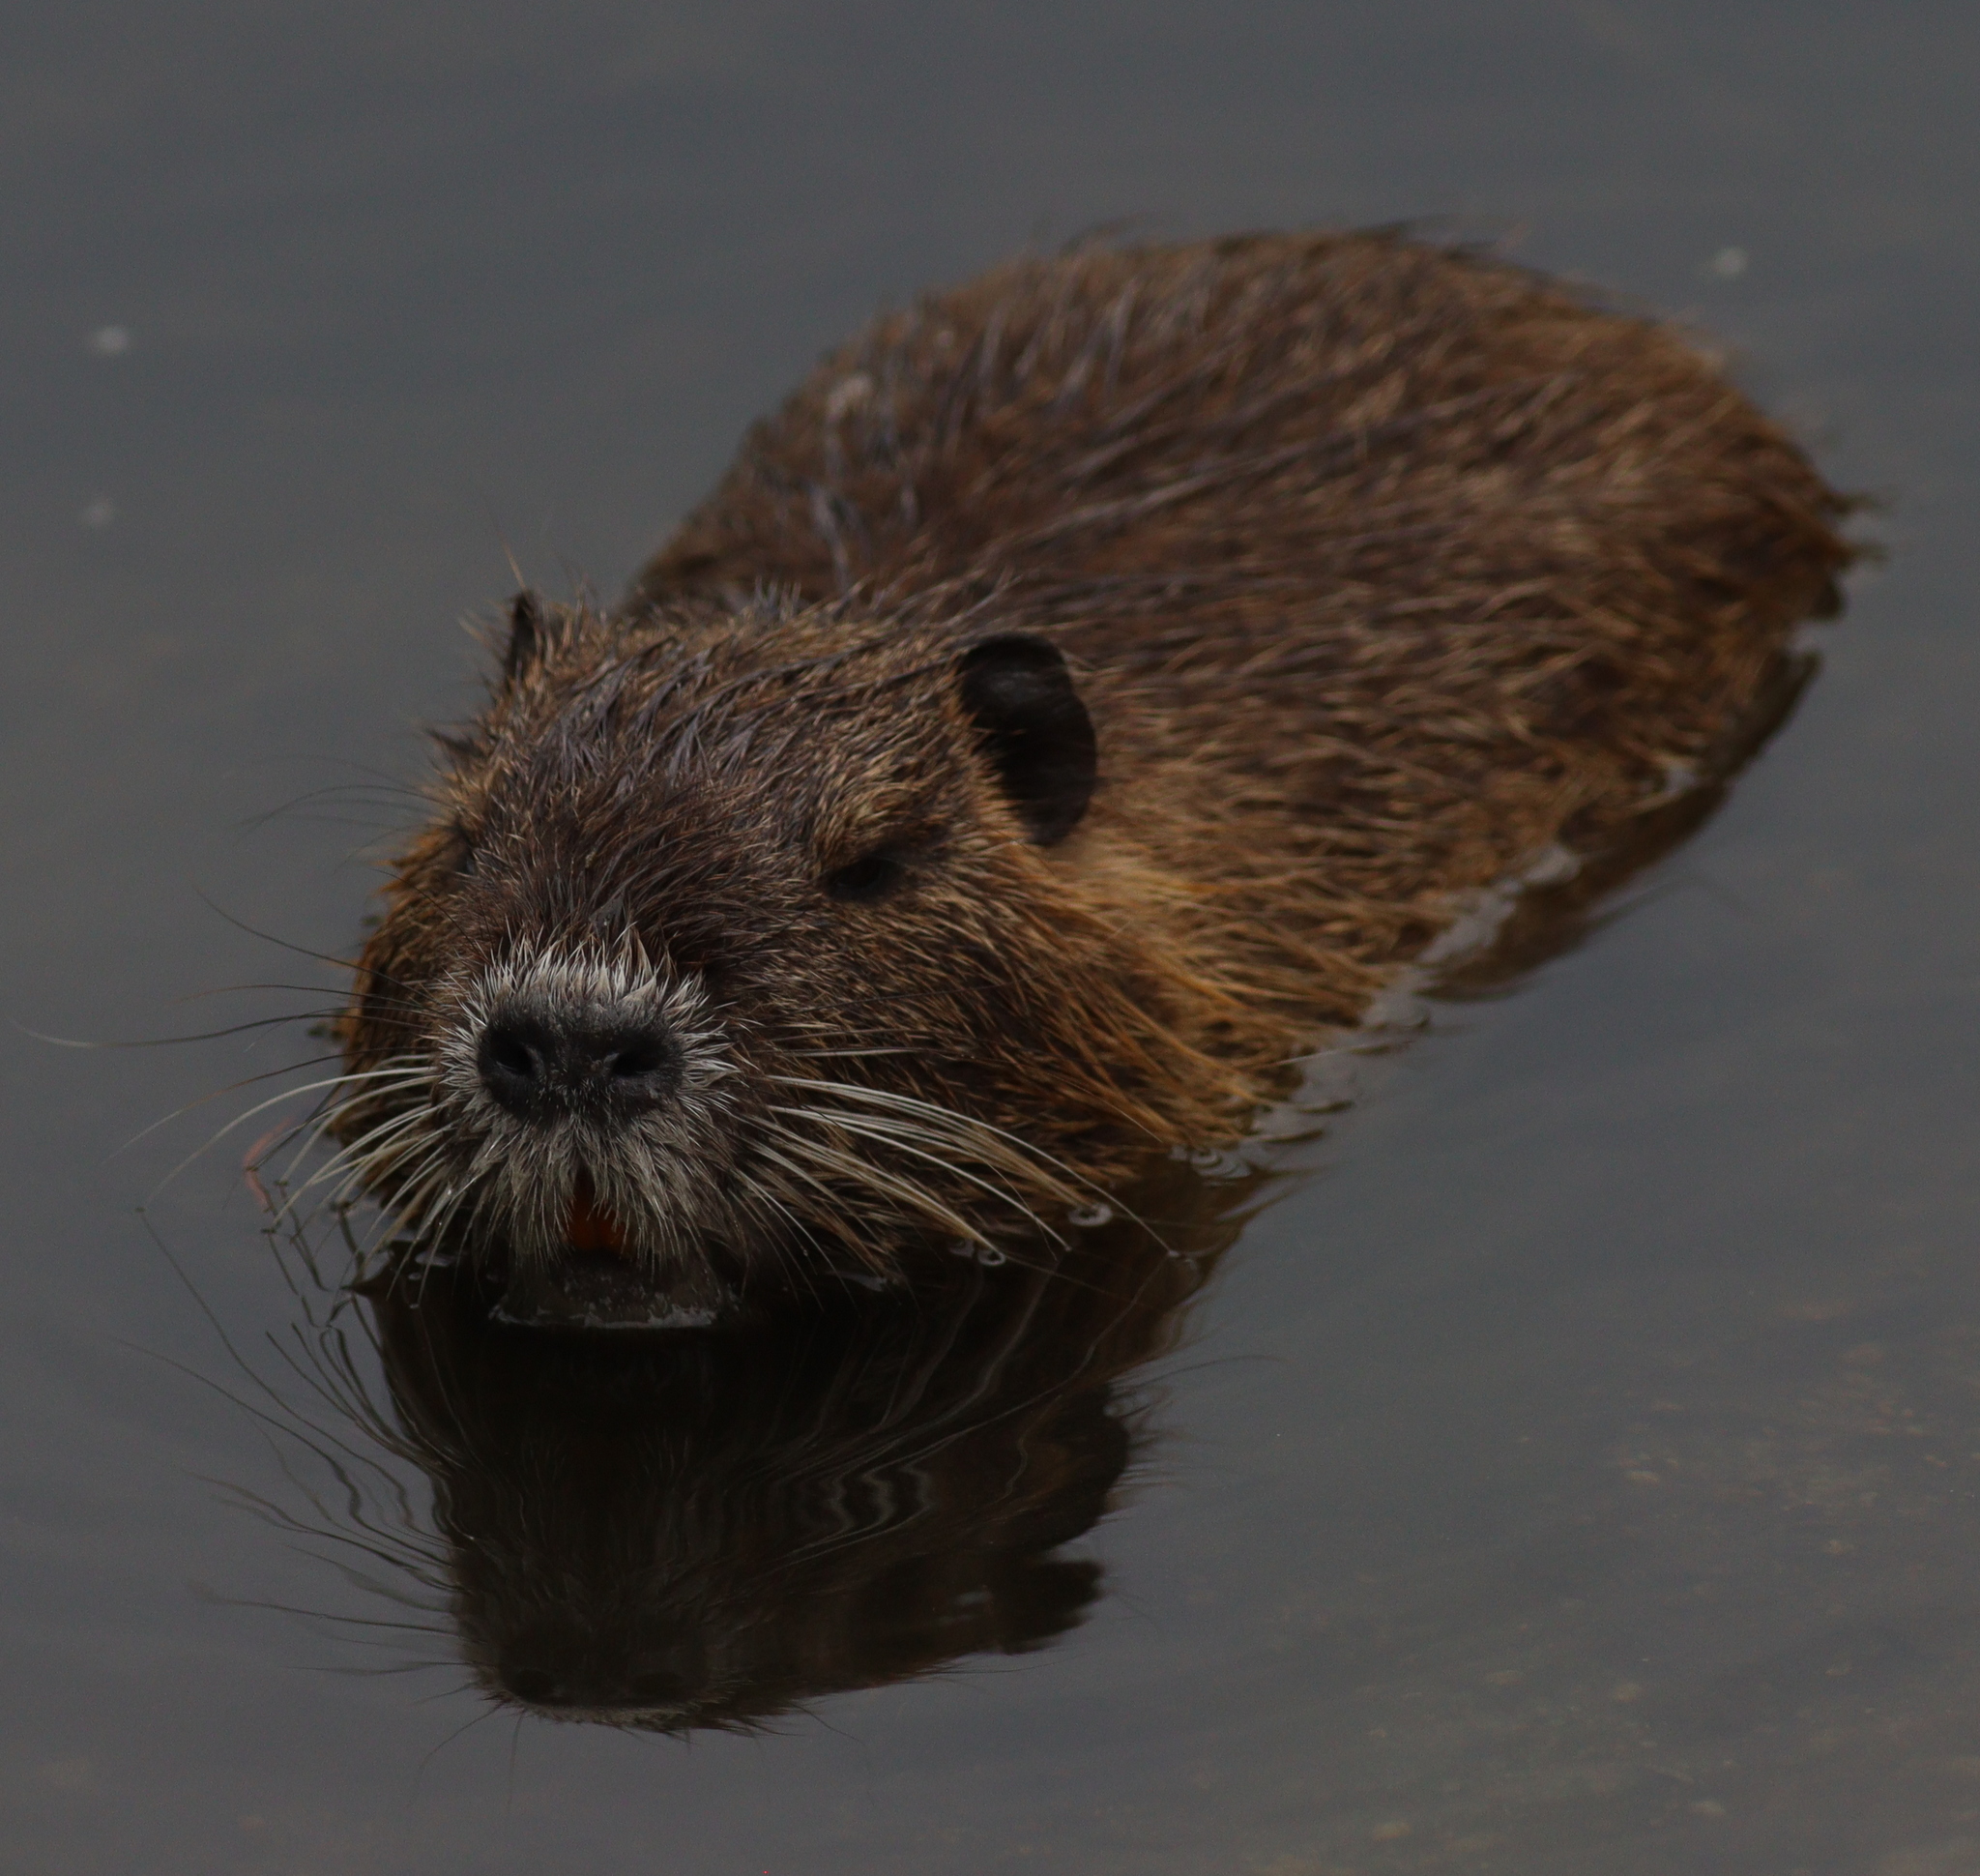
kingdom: Animalia
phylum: Chordata
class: Mammalia
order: Rodentia
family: Myocastoridae
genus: Myocastor
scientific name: Myocastor coypus
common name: Coypu
